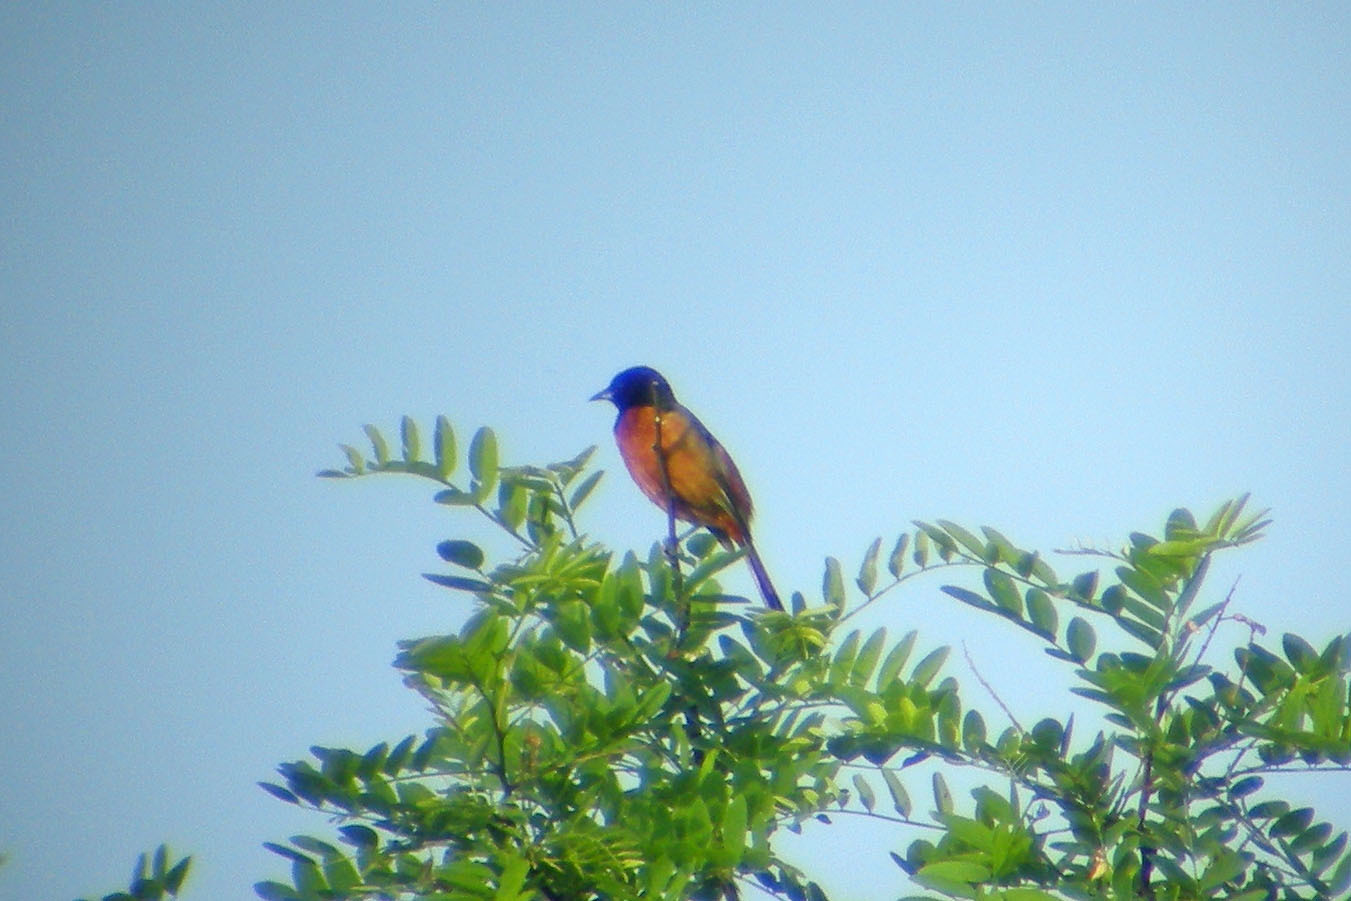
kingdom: Animalia
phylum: Chordata
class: Aves
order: Passeriformes
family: Icteridae
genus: Icterus
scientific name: Icterus spurius
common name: Orchard oriole
